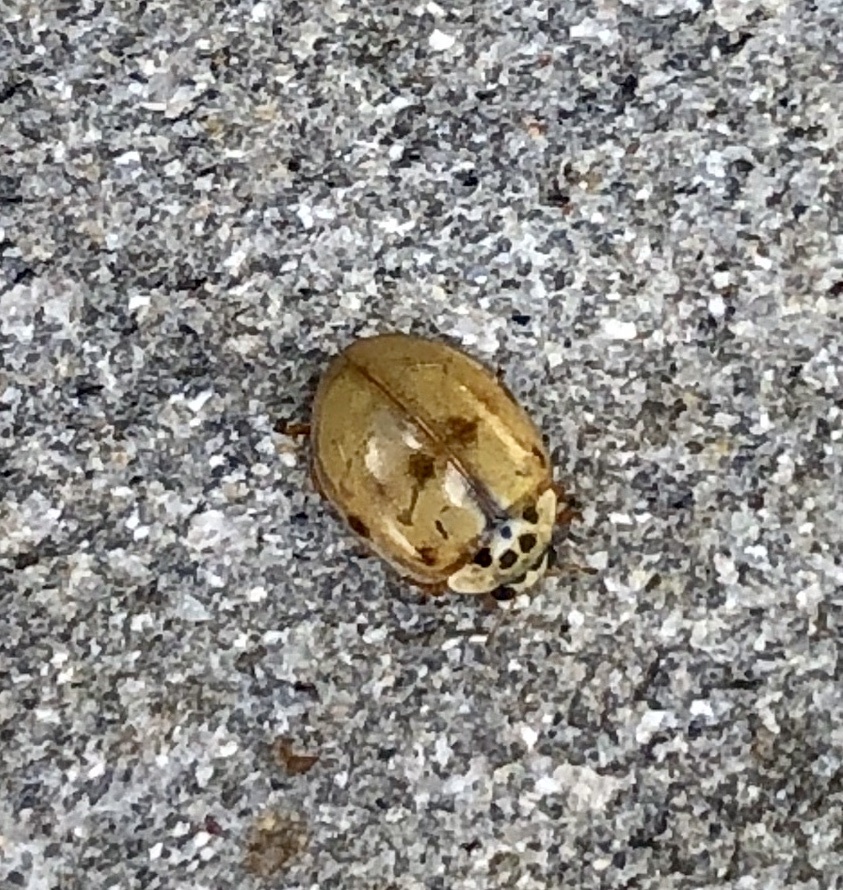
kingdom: Animalia
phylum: Arthropoda
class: Insecta
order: Coleoptera
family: Coccinellidae
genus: Adalia
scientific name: Adalia decempunctata
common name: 10-spot ladybird
